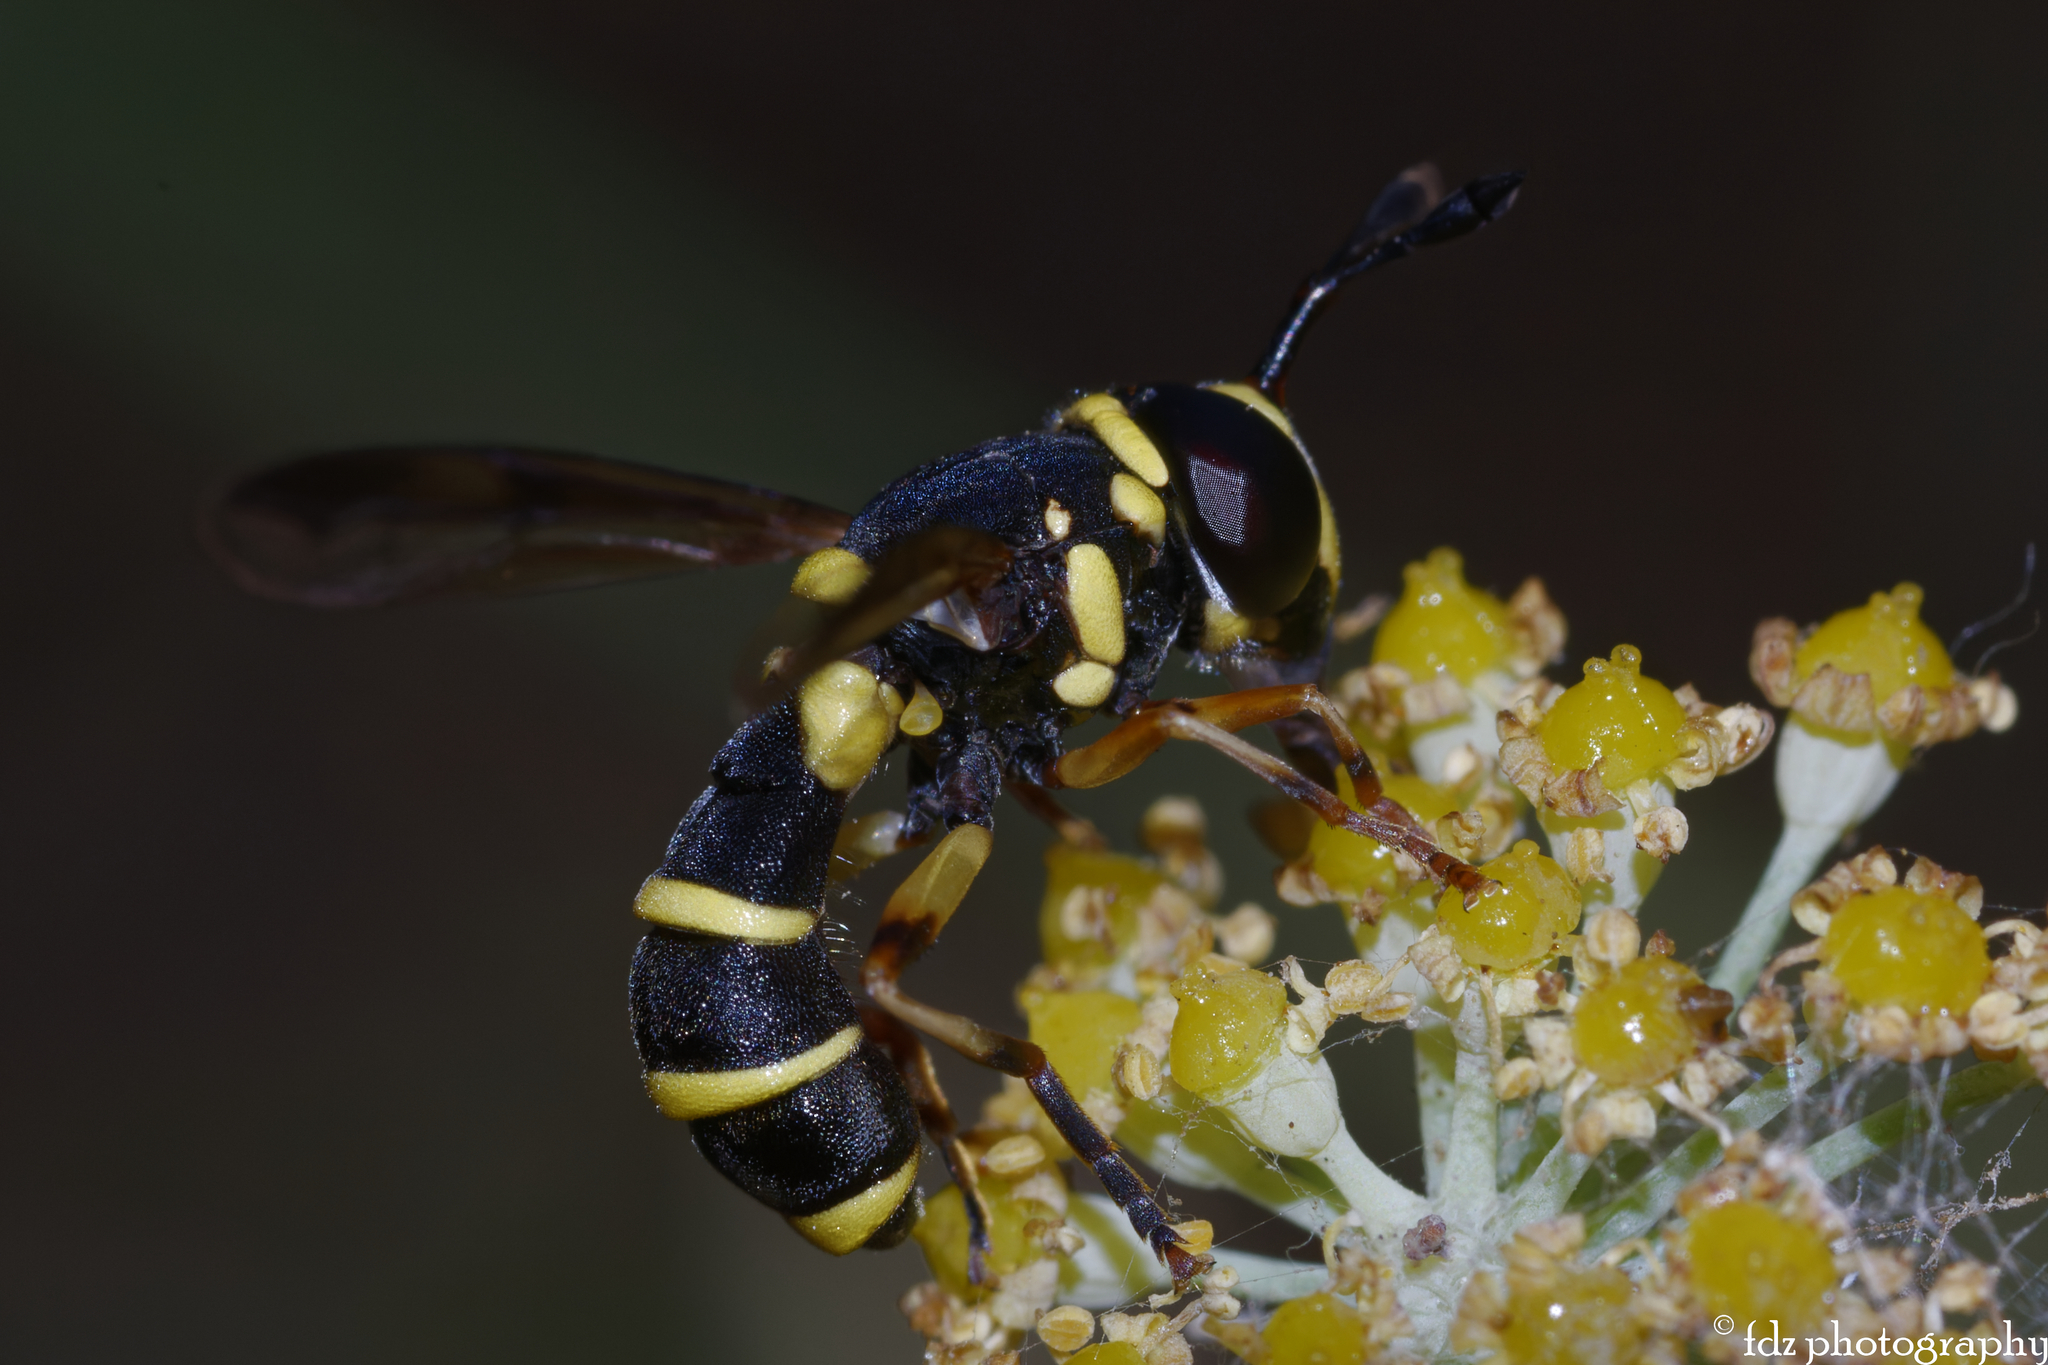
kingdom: Animalia
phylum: Arthropoda
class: Insecta
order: Diptera
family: Syrphidae
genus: Ceriana
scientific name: Ceriana vespiformis
